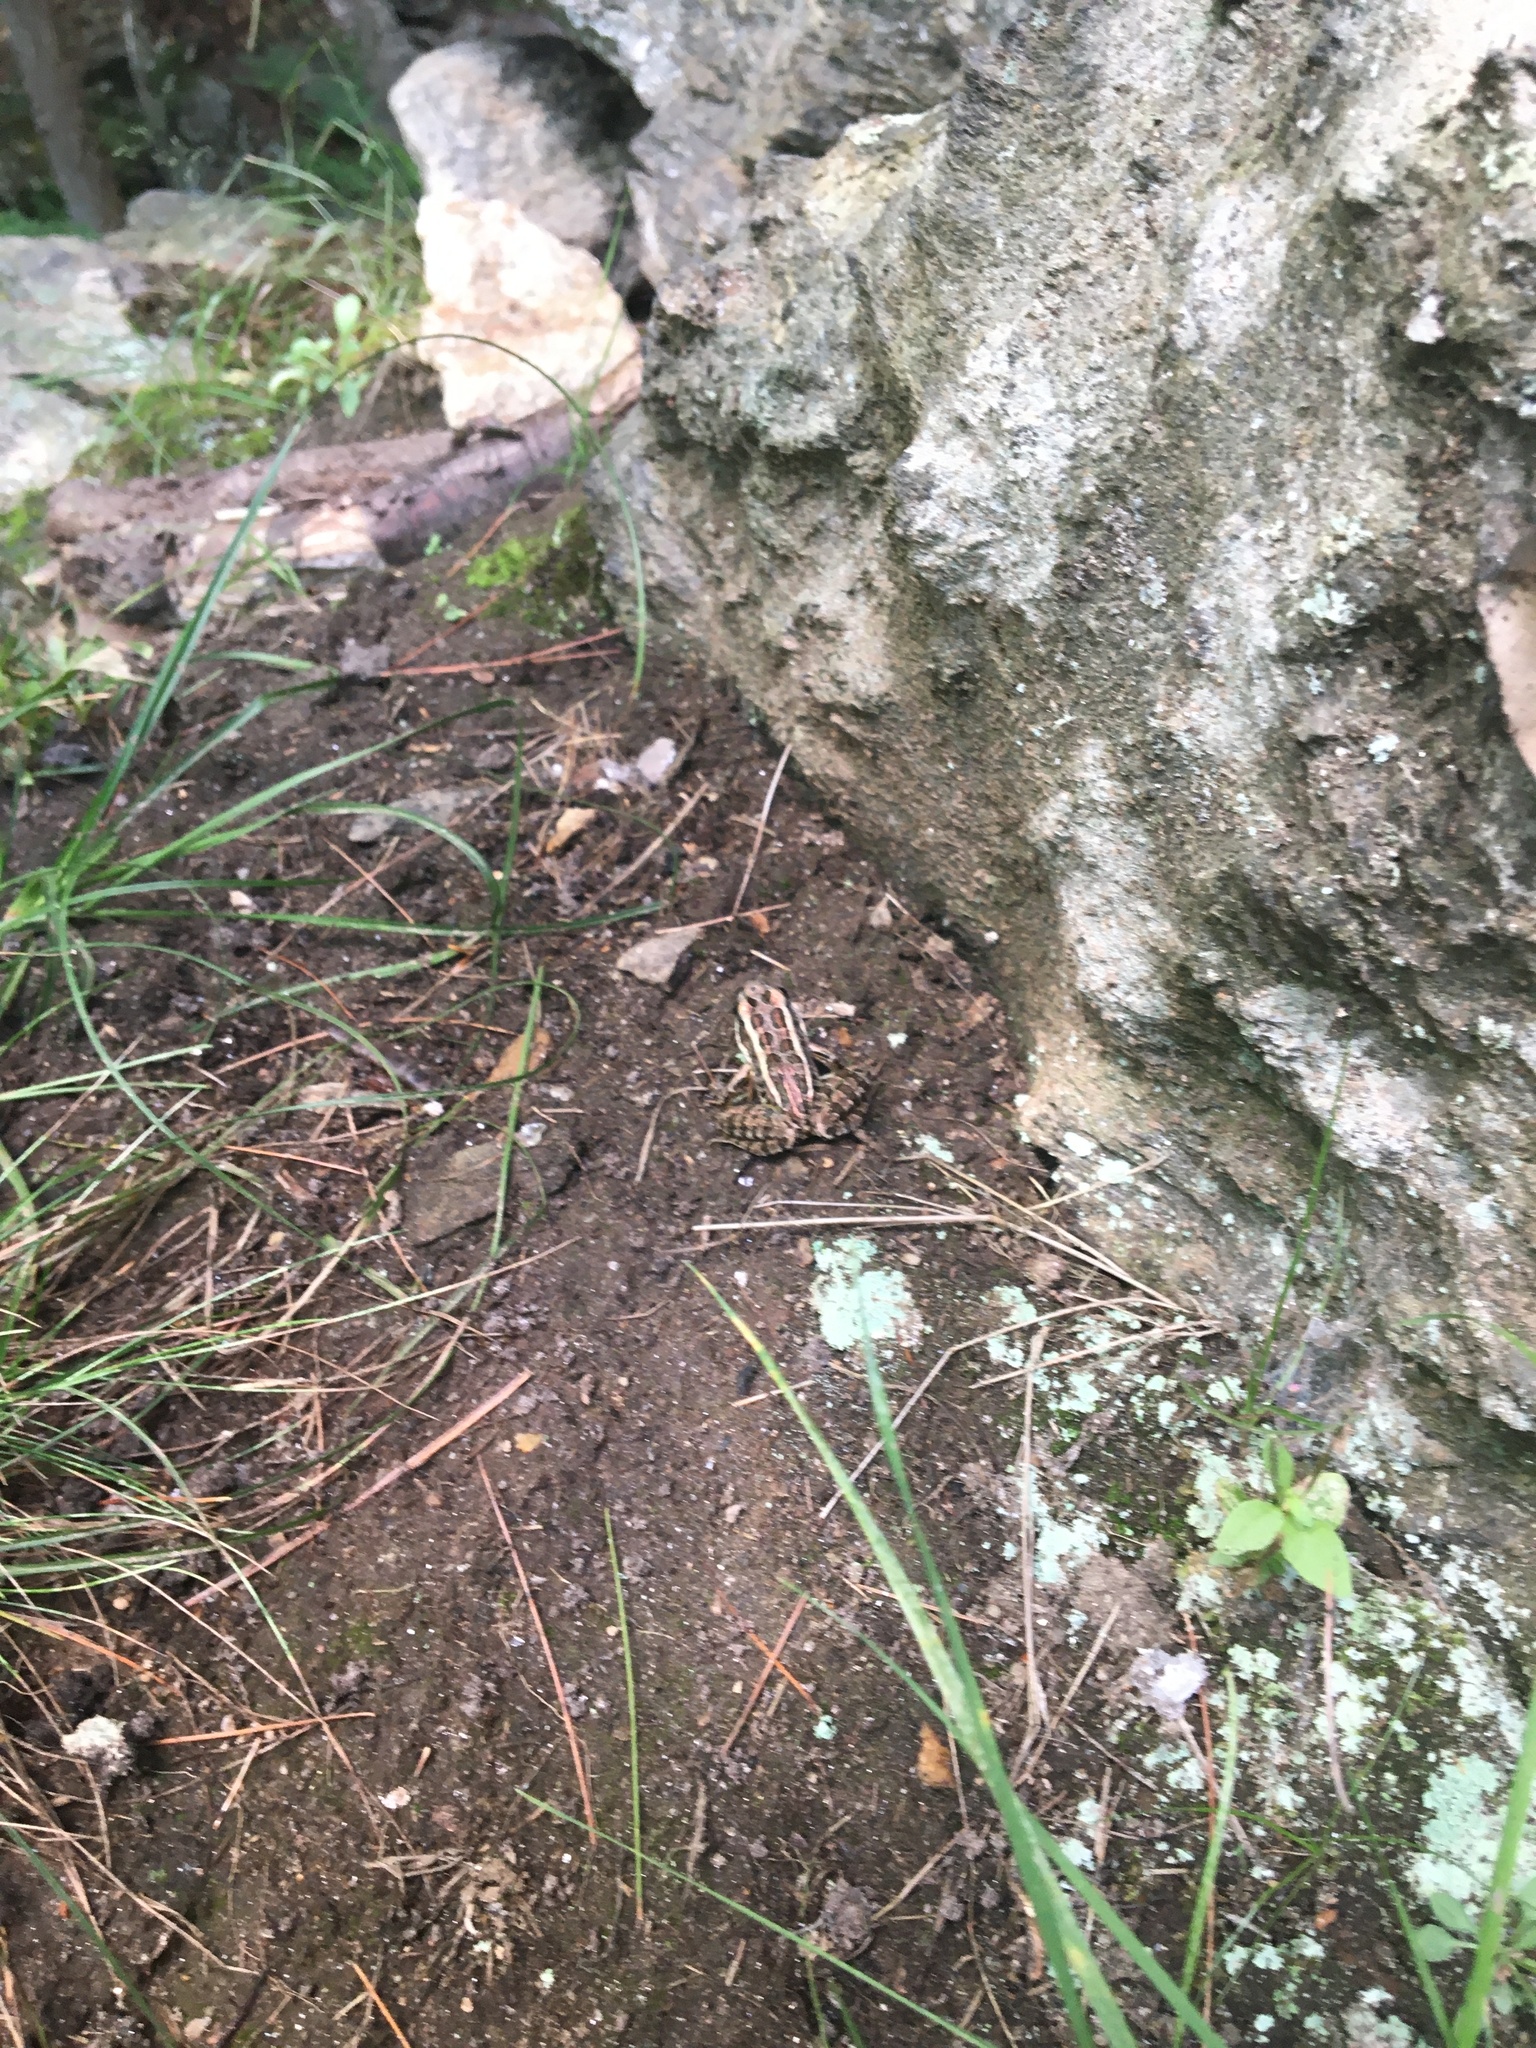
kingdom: Animalia
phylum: Chordata
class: Amphibia
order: Anura
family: Ranidae
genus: Lithobates
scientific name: Lithobates palustris
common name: Pickerel frog
